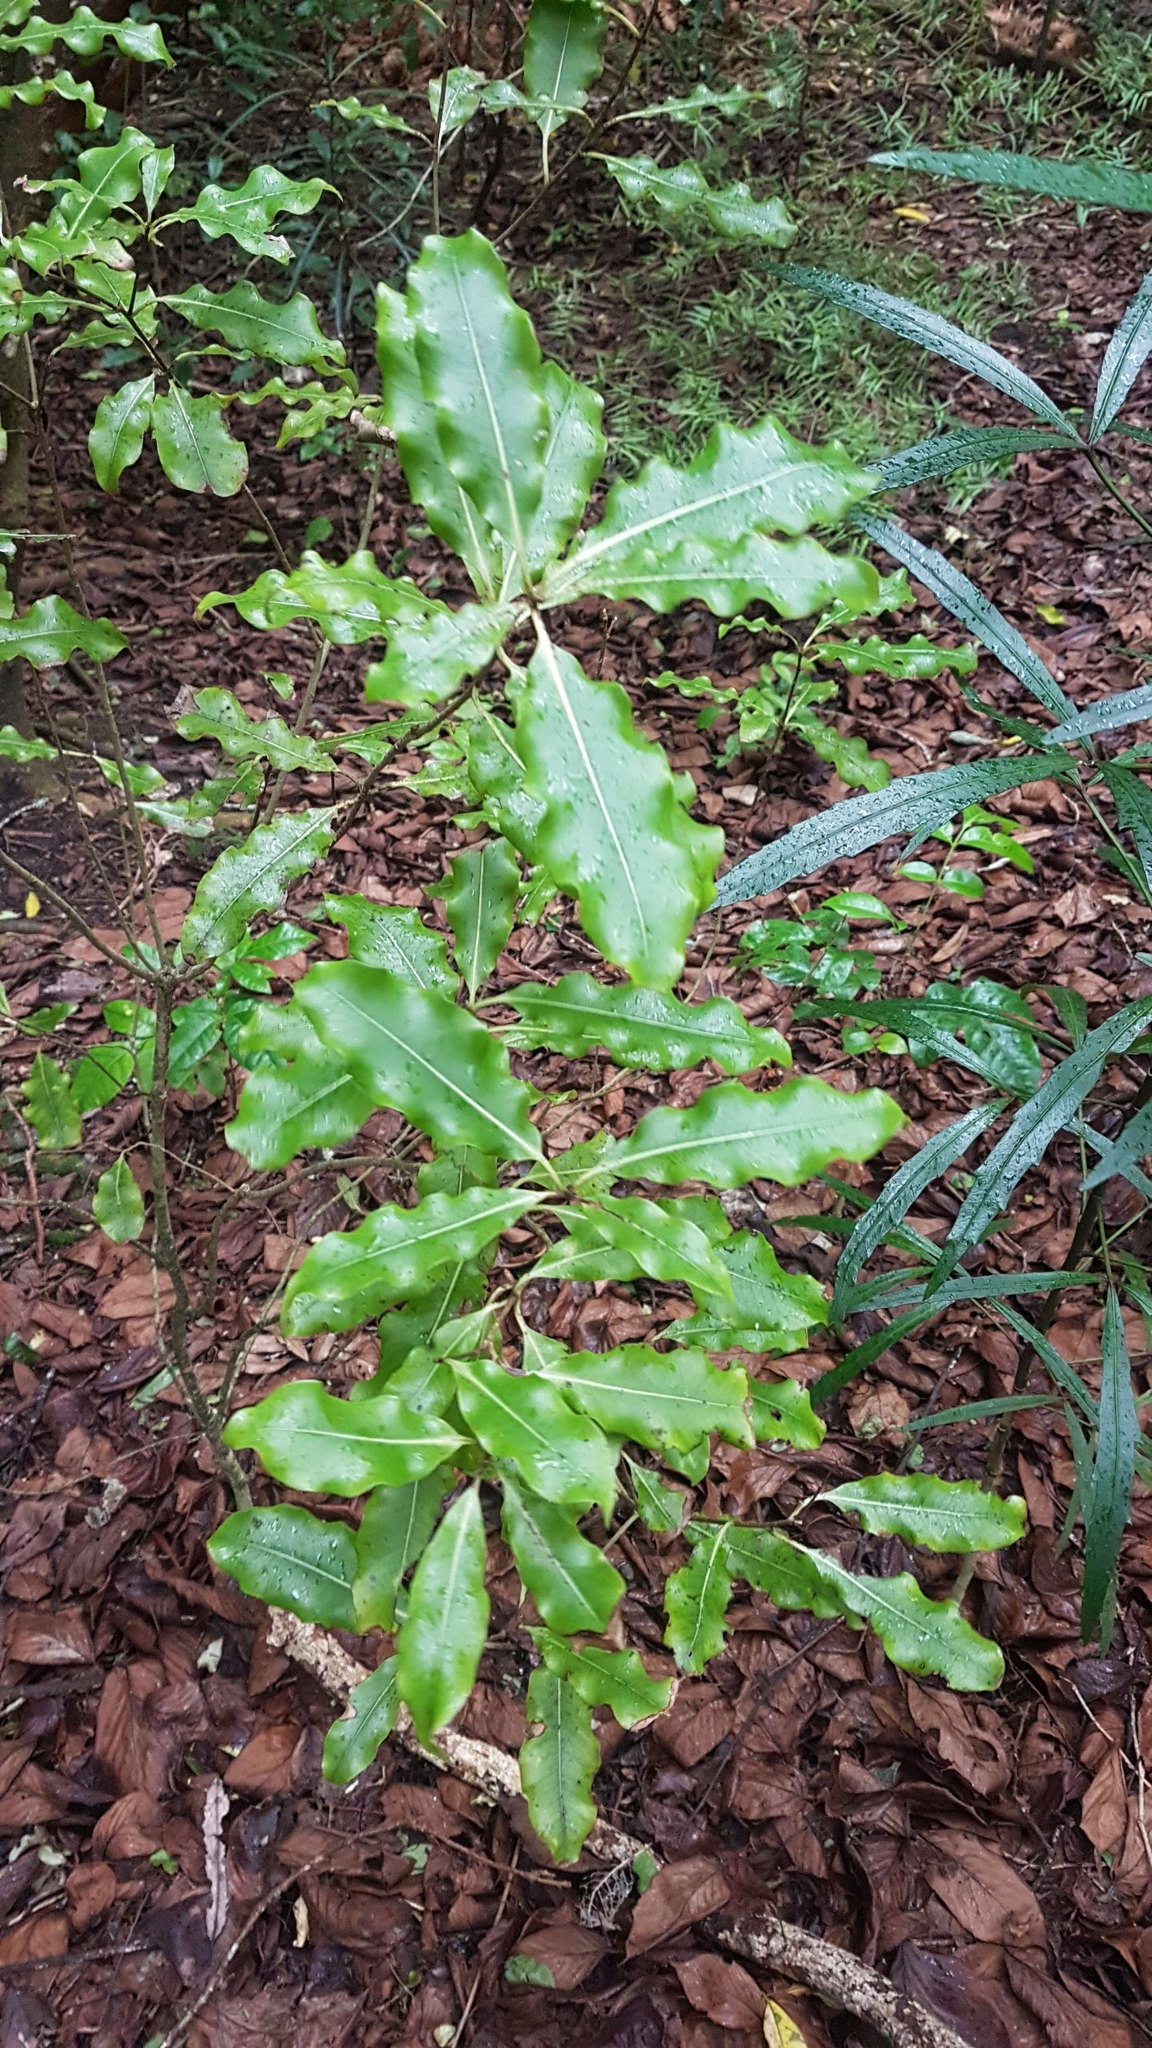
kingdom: Plantae
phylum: Tracheophyta
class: Magnoliopsida
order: Apiales
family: Pittosporaceae
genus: Pittosporum
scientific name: Pittosporum eugenioides
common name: Lemonwood
